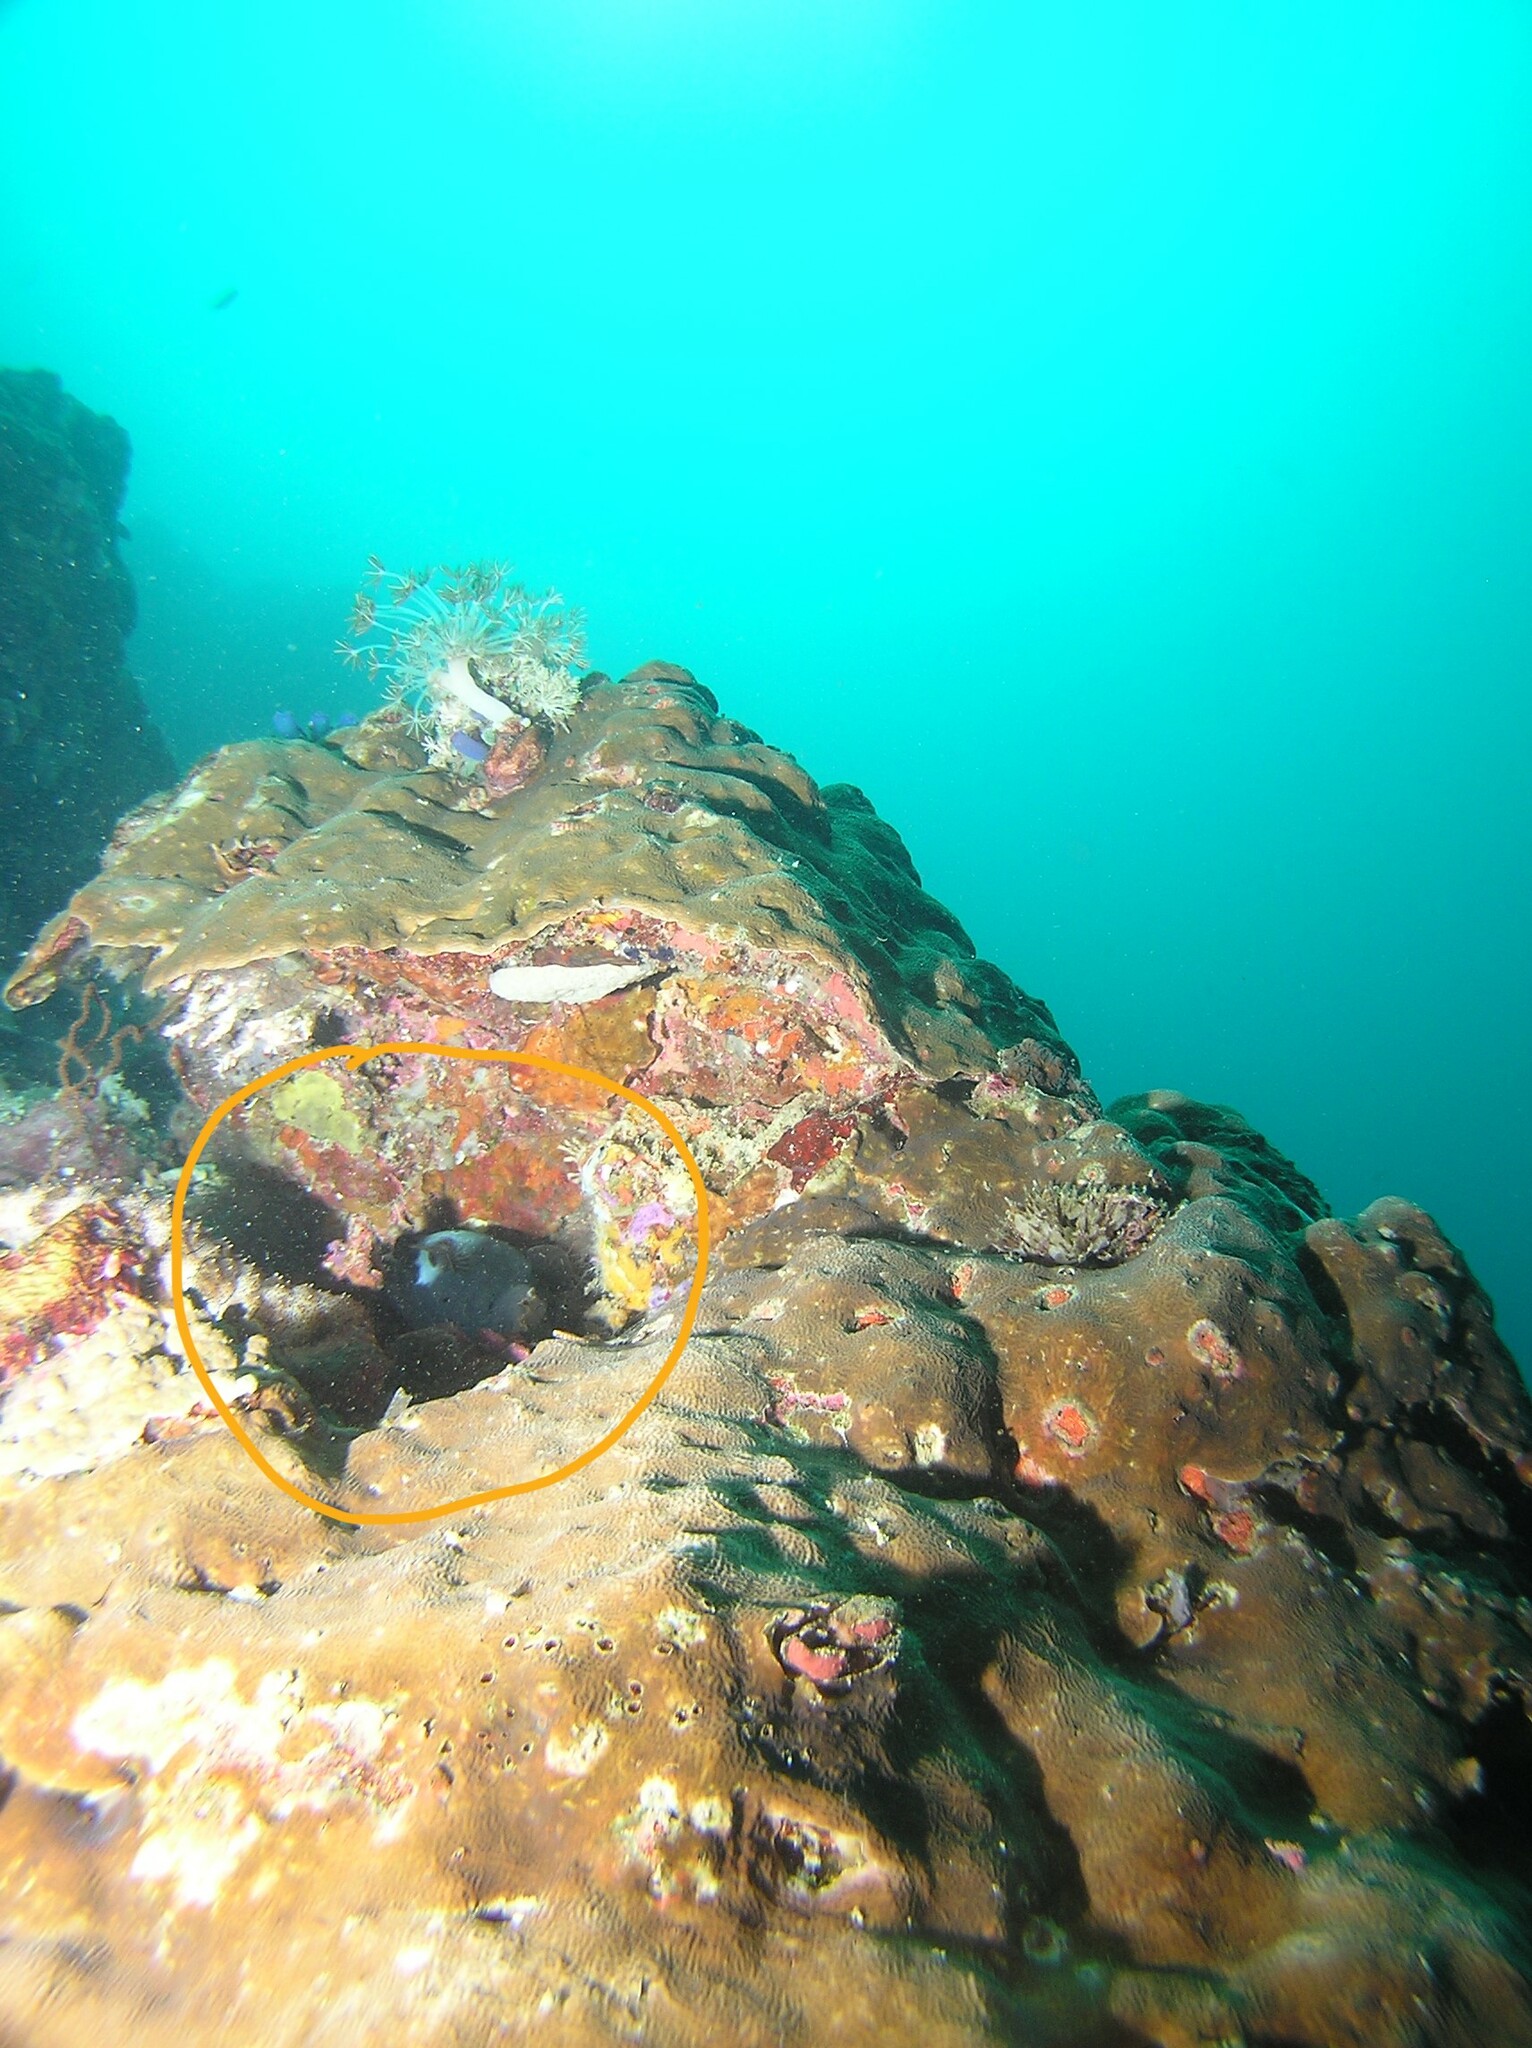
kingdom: Animalia
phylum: Chordata
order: Tetraodontiformes
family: Tetraodontidae
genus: Arothron
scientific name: Arothron nigropunctatus
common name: Black spotted blow fish
